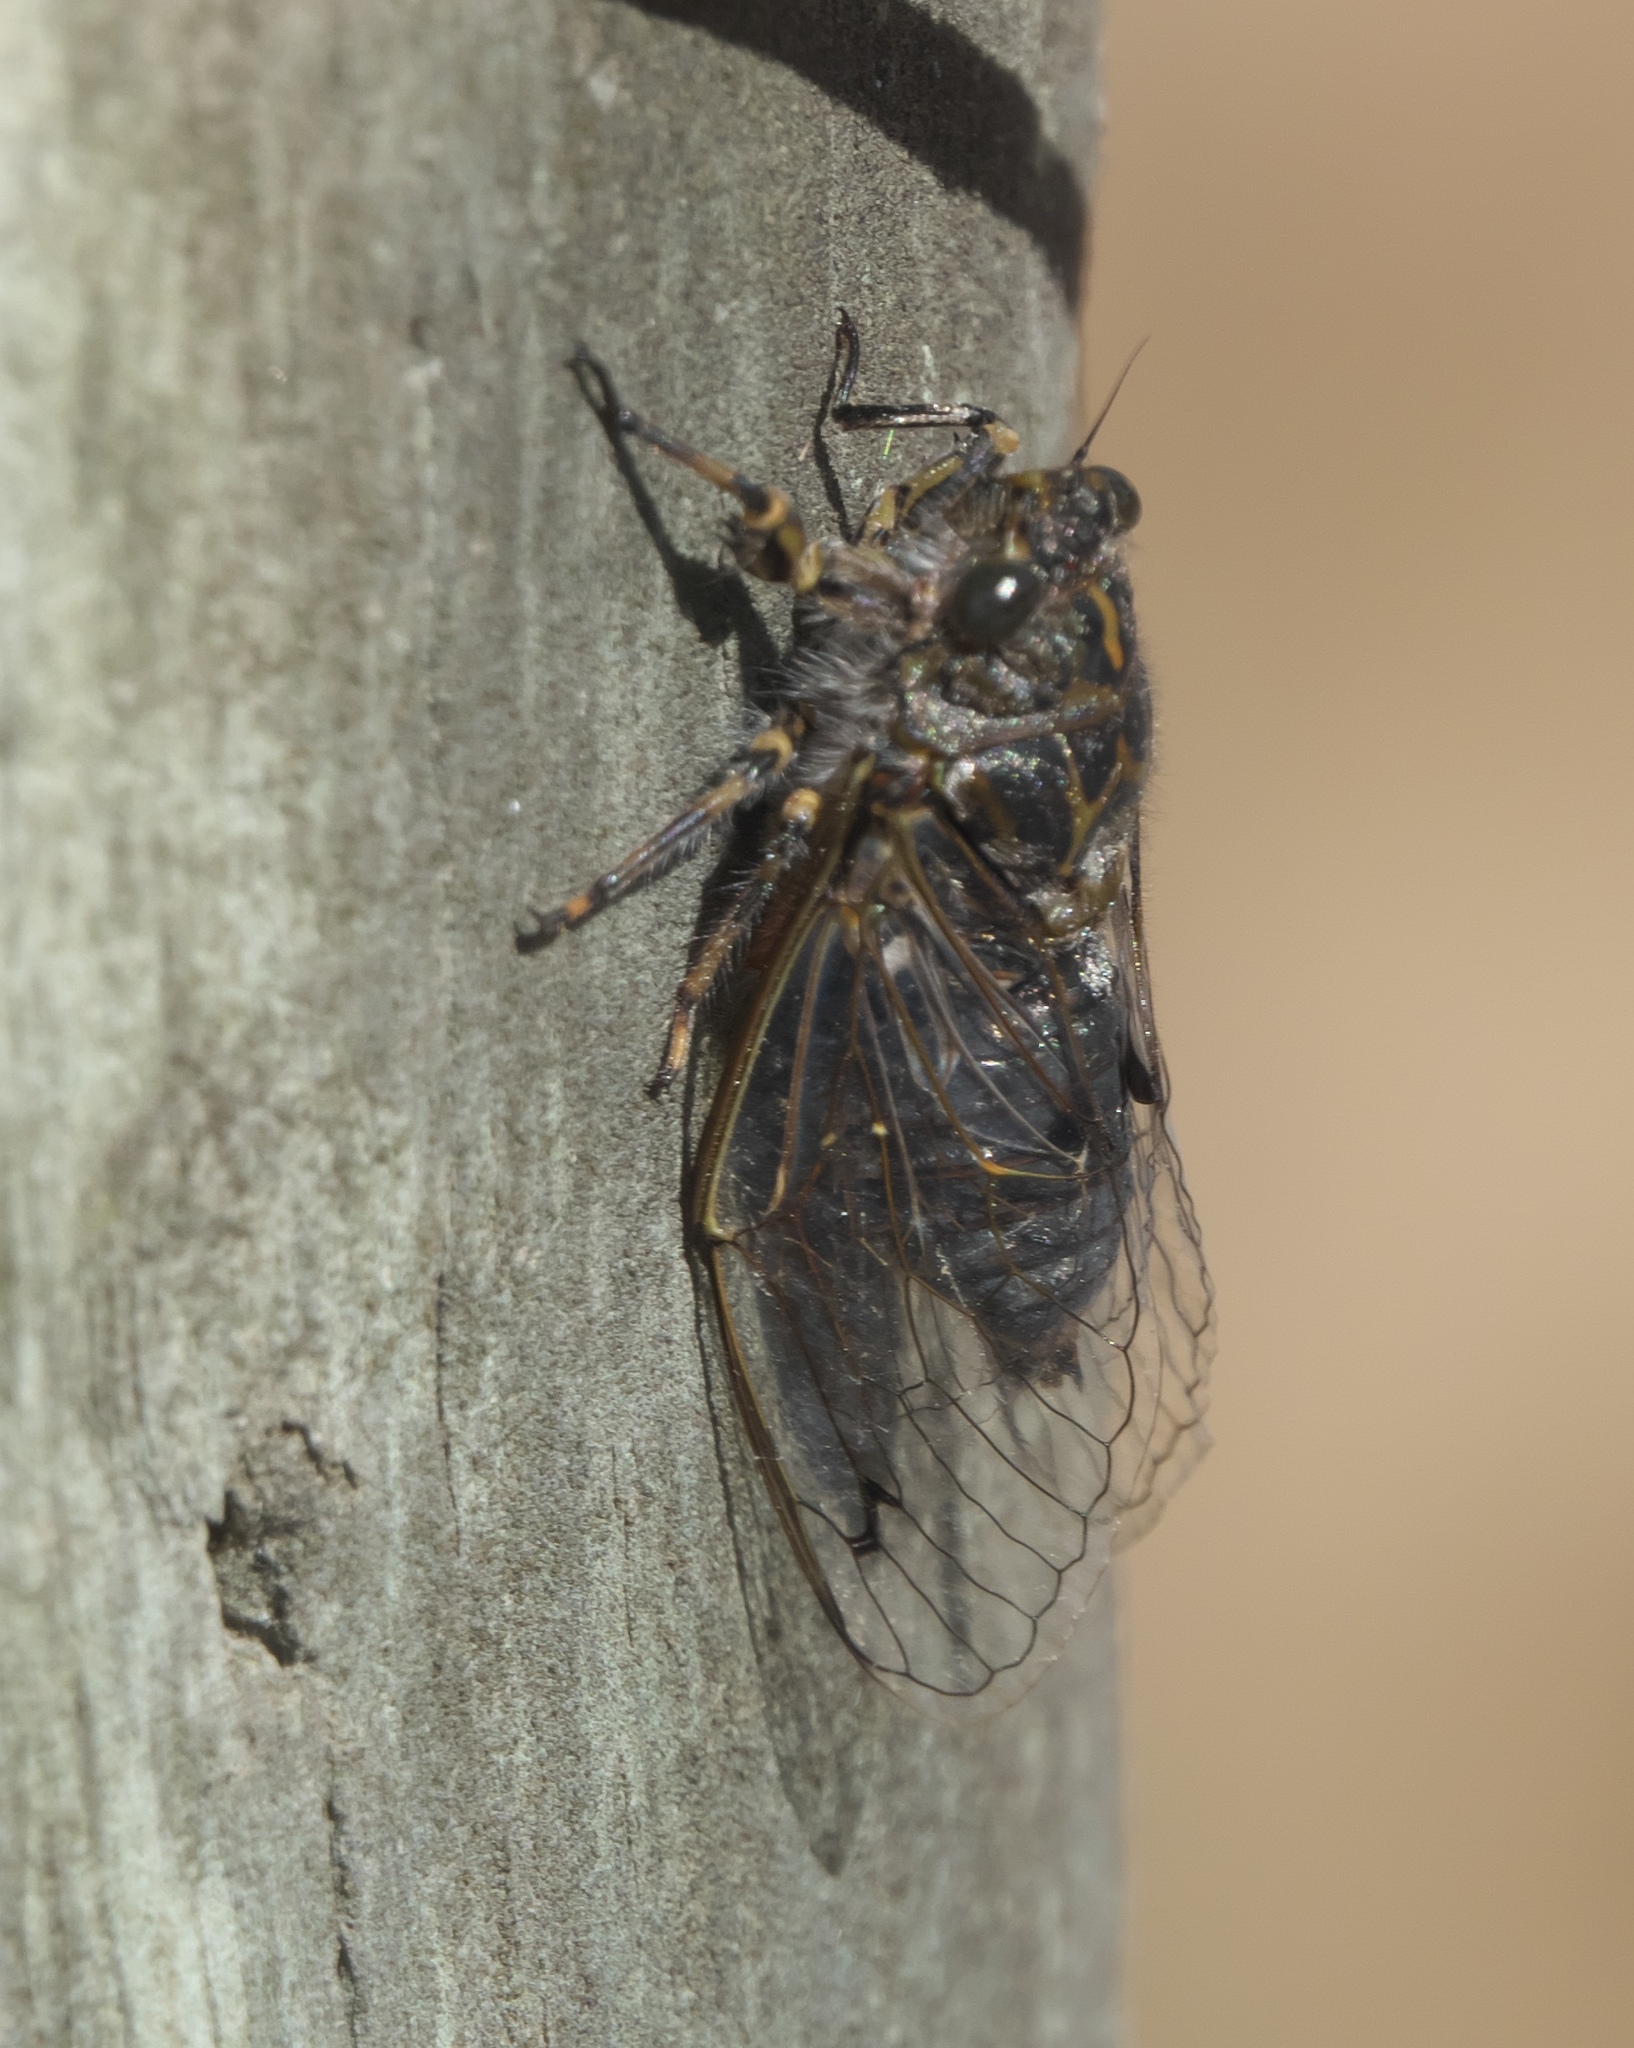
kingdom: Animalia
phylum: Arthropoda
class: Insecta
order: Hemiptera
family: Cicadidae
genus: Amphipsalta
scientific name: Amphipsalta strepitans
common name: Chirping cicada
